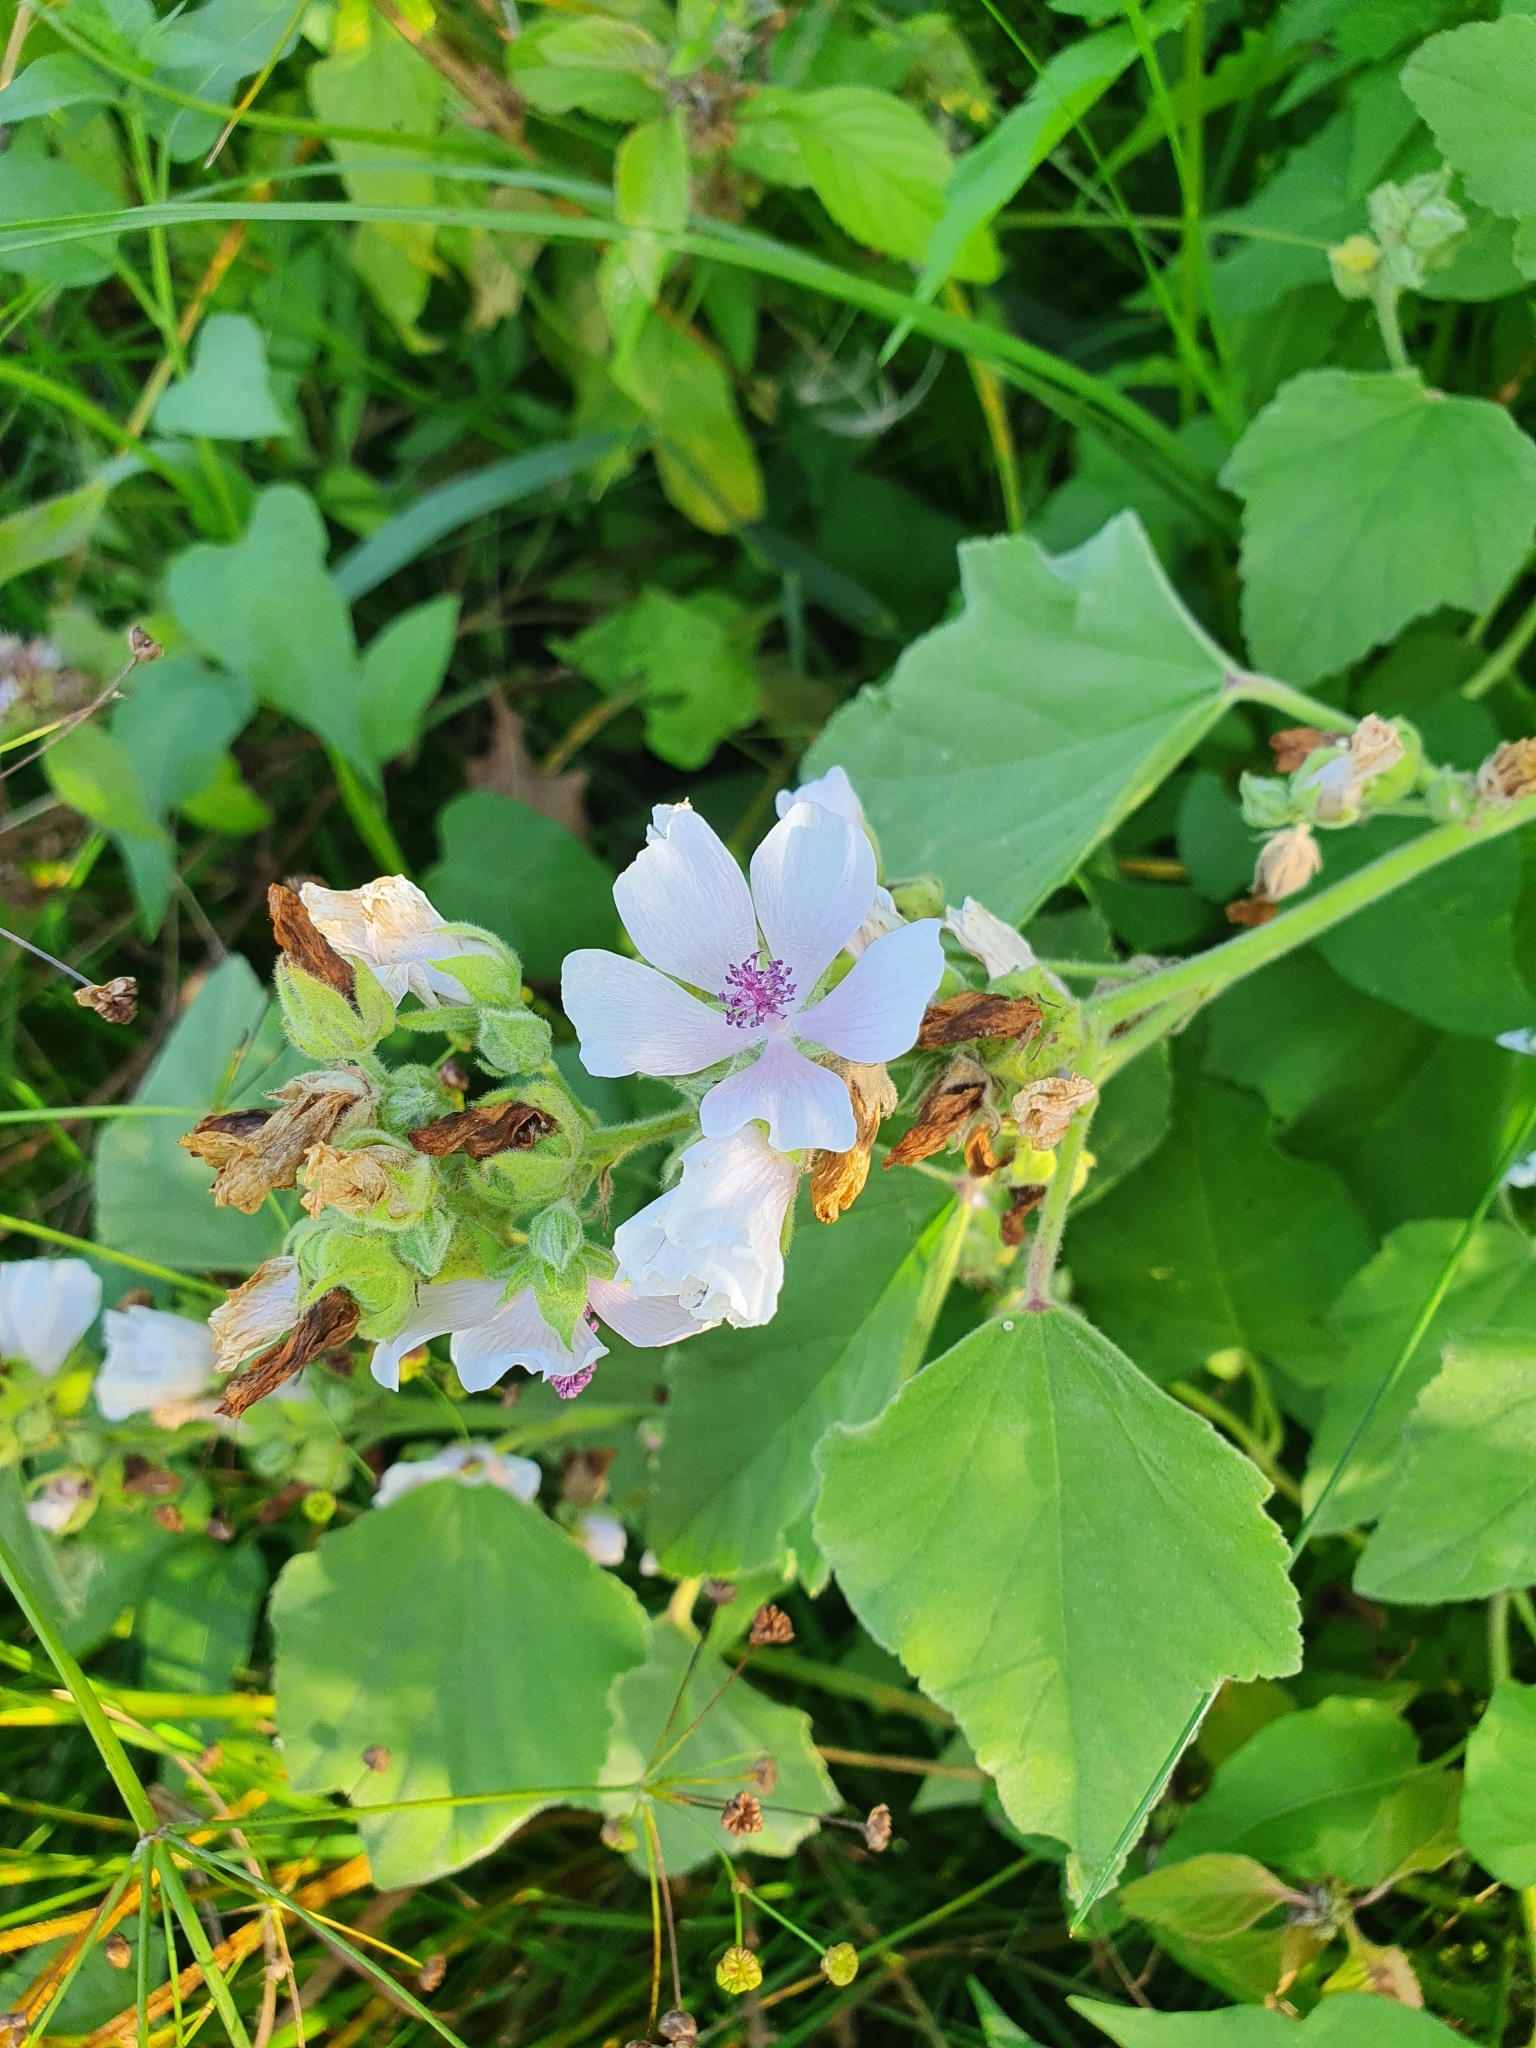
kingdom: Plantae
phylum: Tracheophyta
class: Magnoliopsida
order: Malvales
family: Malvaceae
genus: Althaea
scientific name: Althaea officinalis
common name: Marsh-mallow
